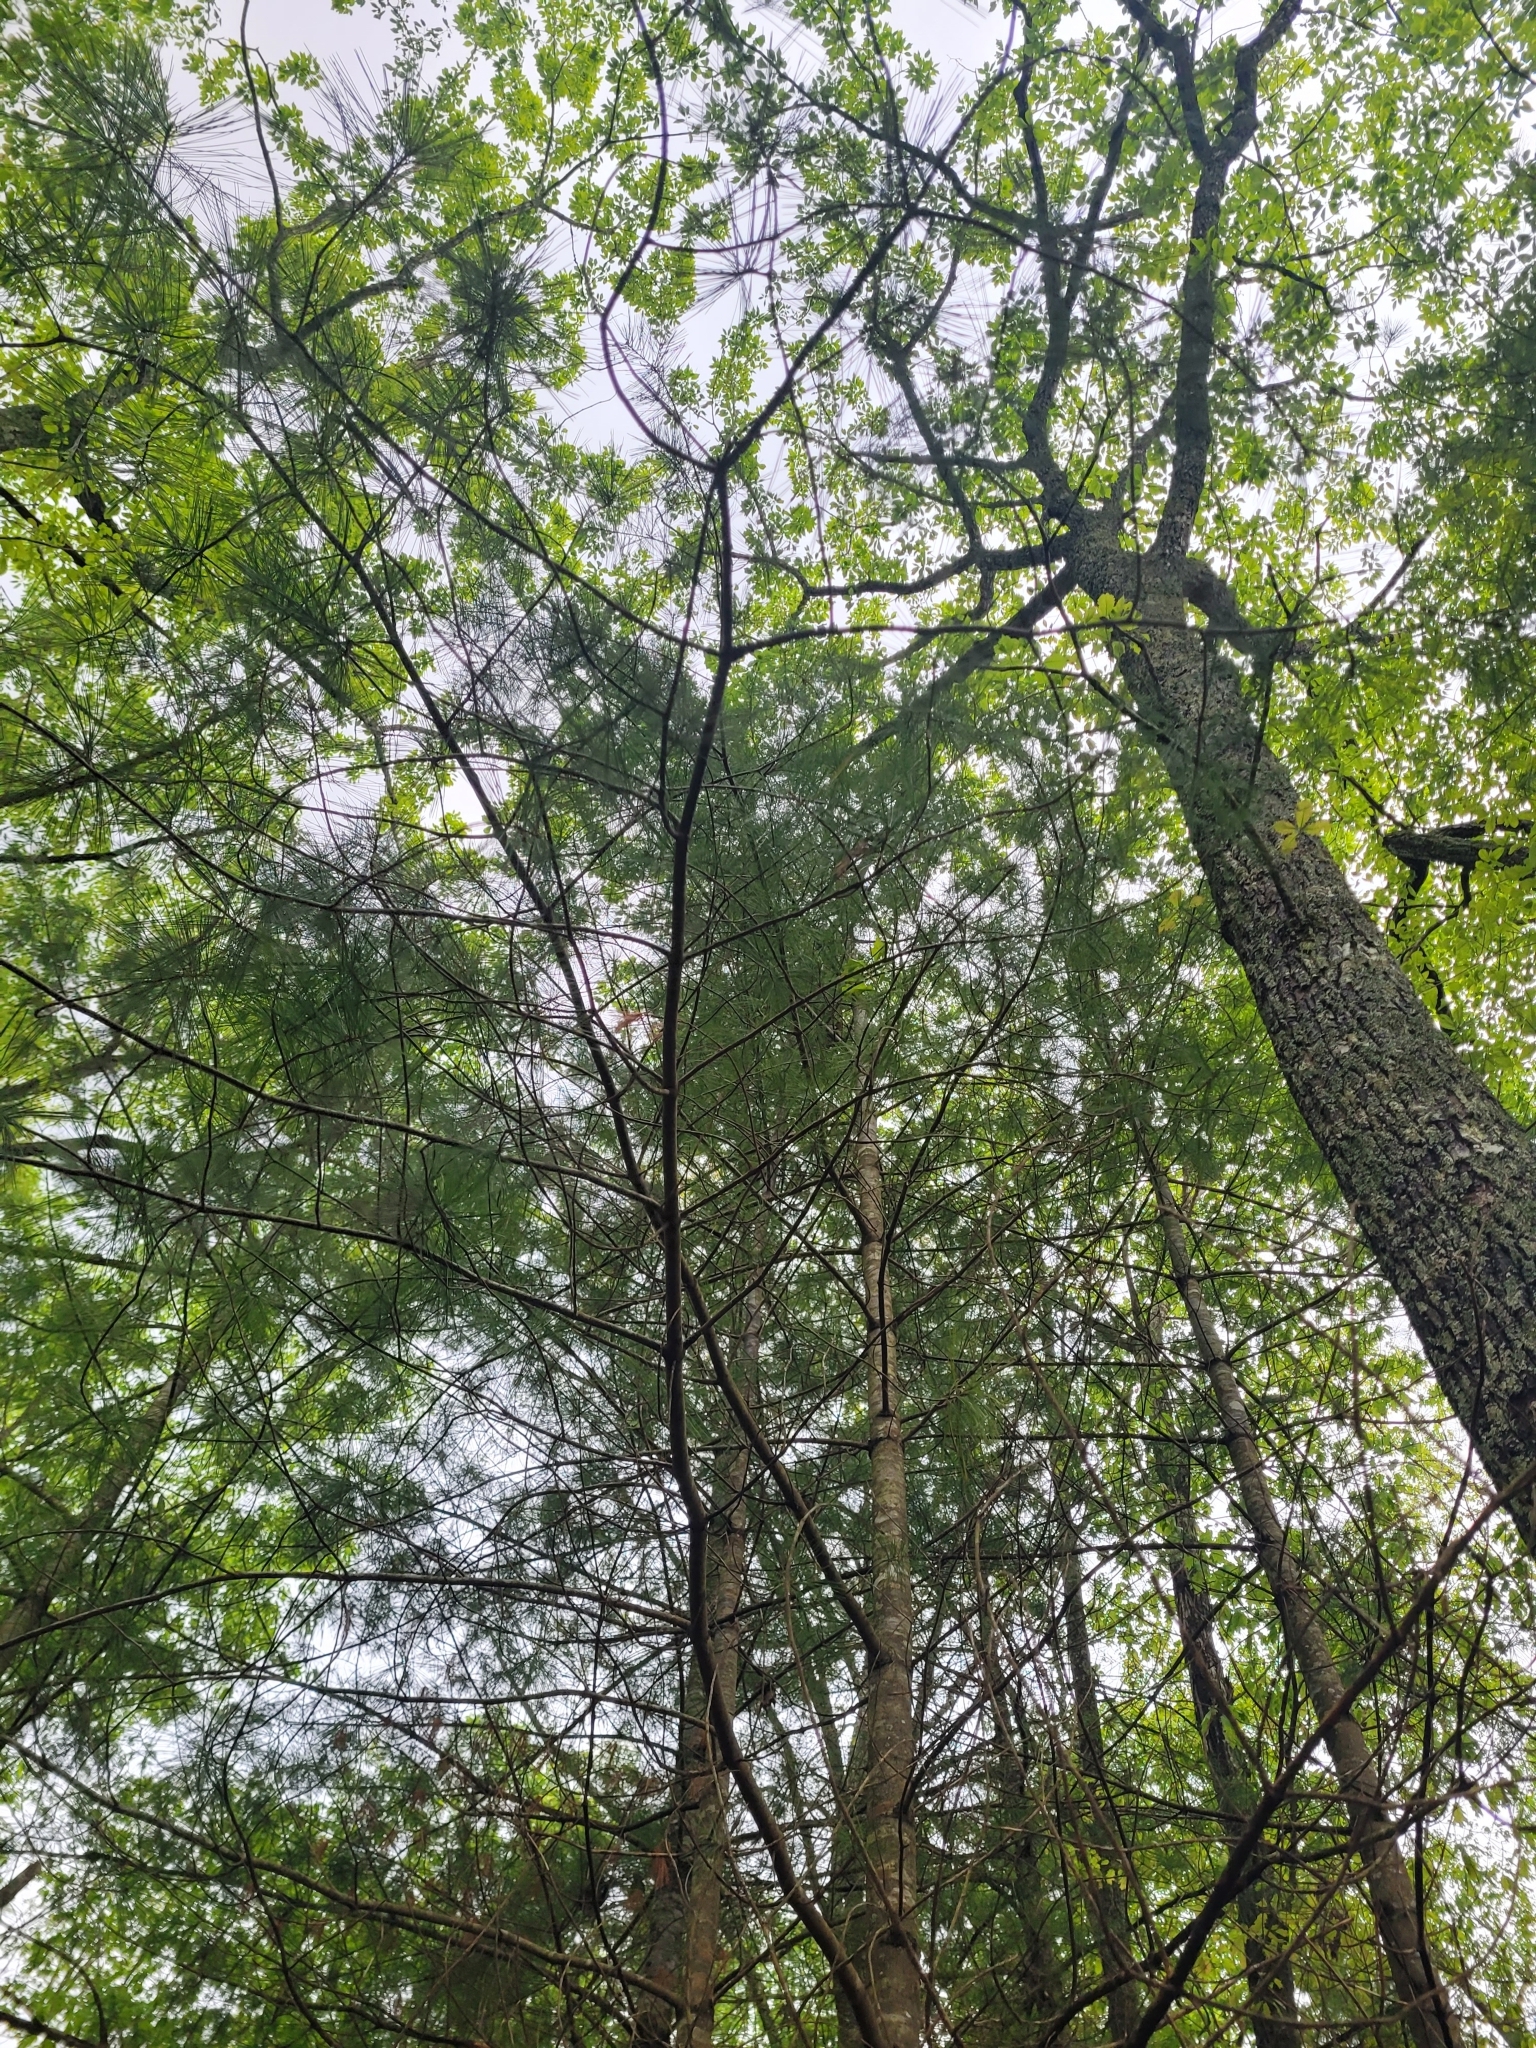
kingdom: Plantae
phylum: Tracheophyta
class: Pinopsida
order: Pinales
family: Pinaceae
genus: Pinus
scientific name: Pinus strobus
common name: Weymouth pine
